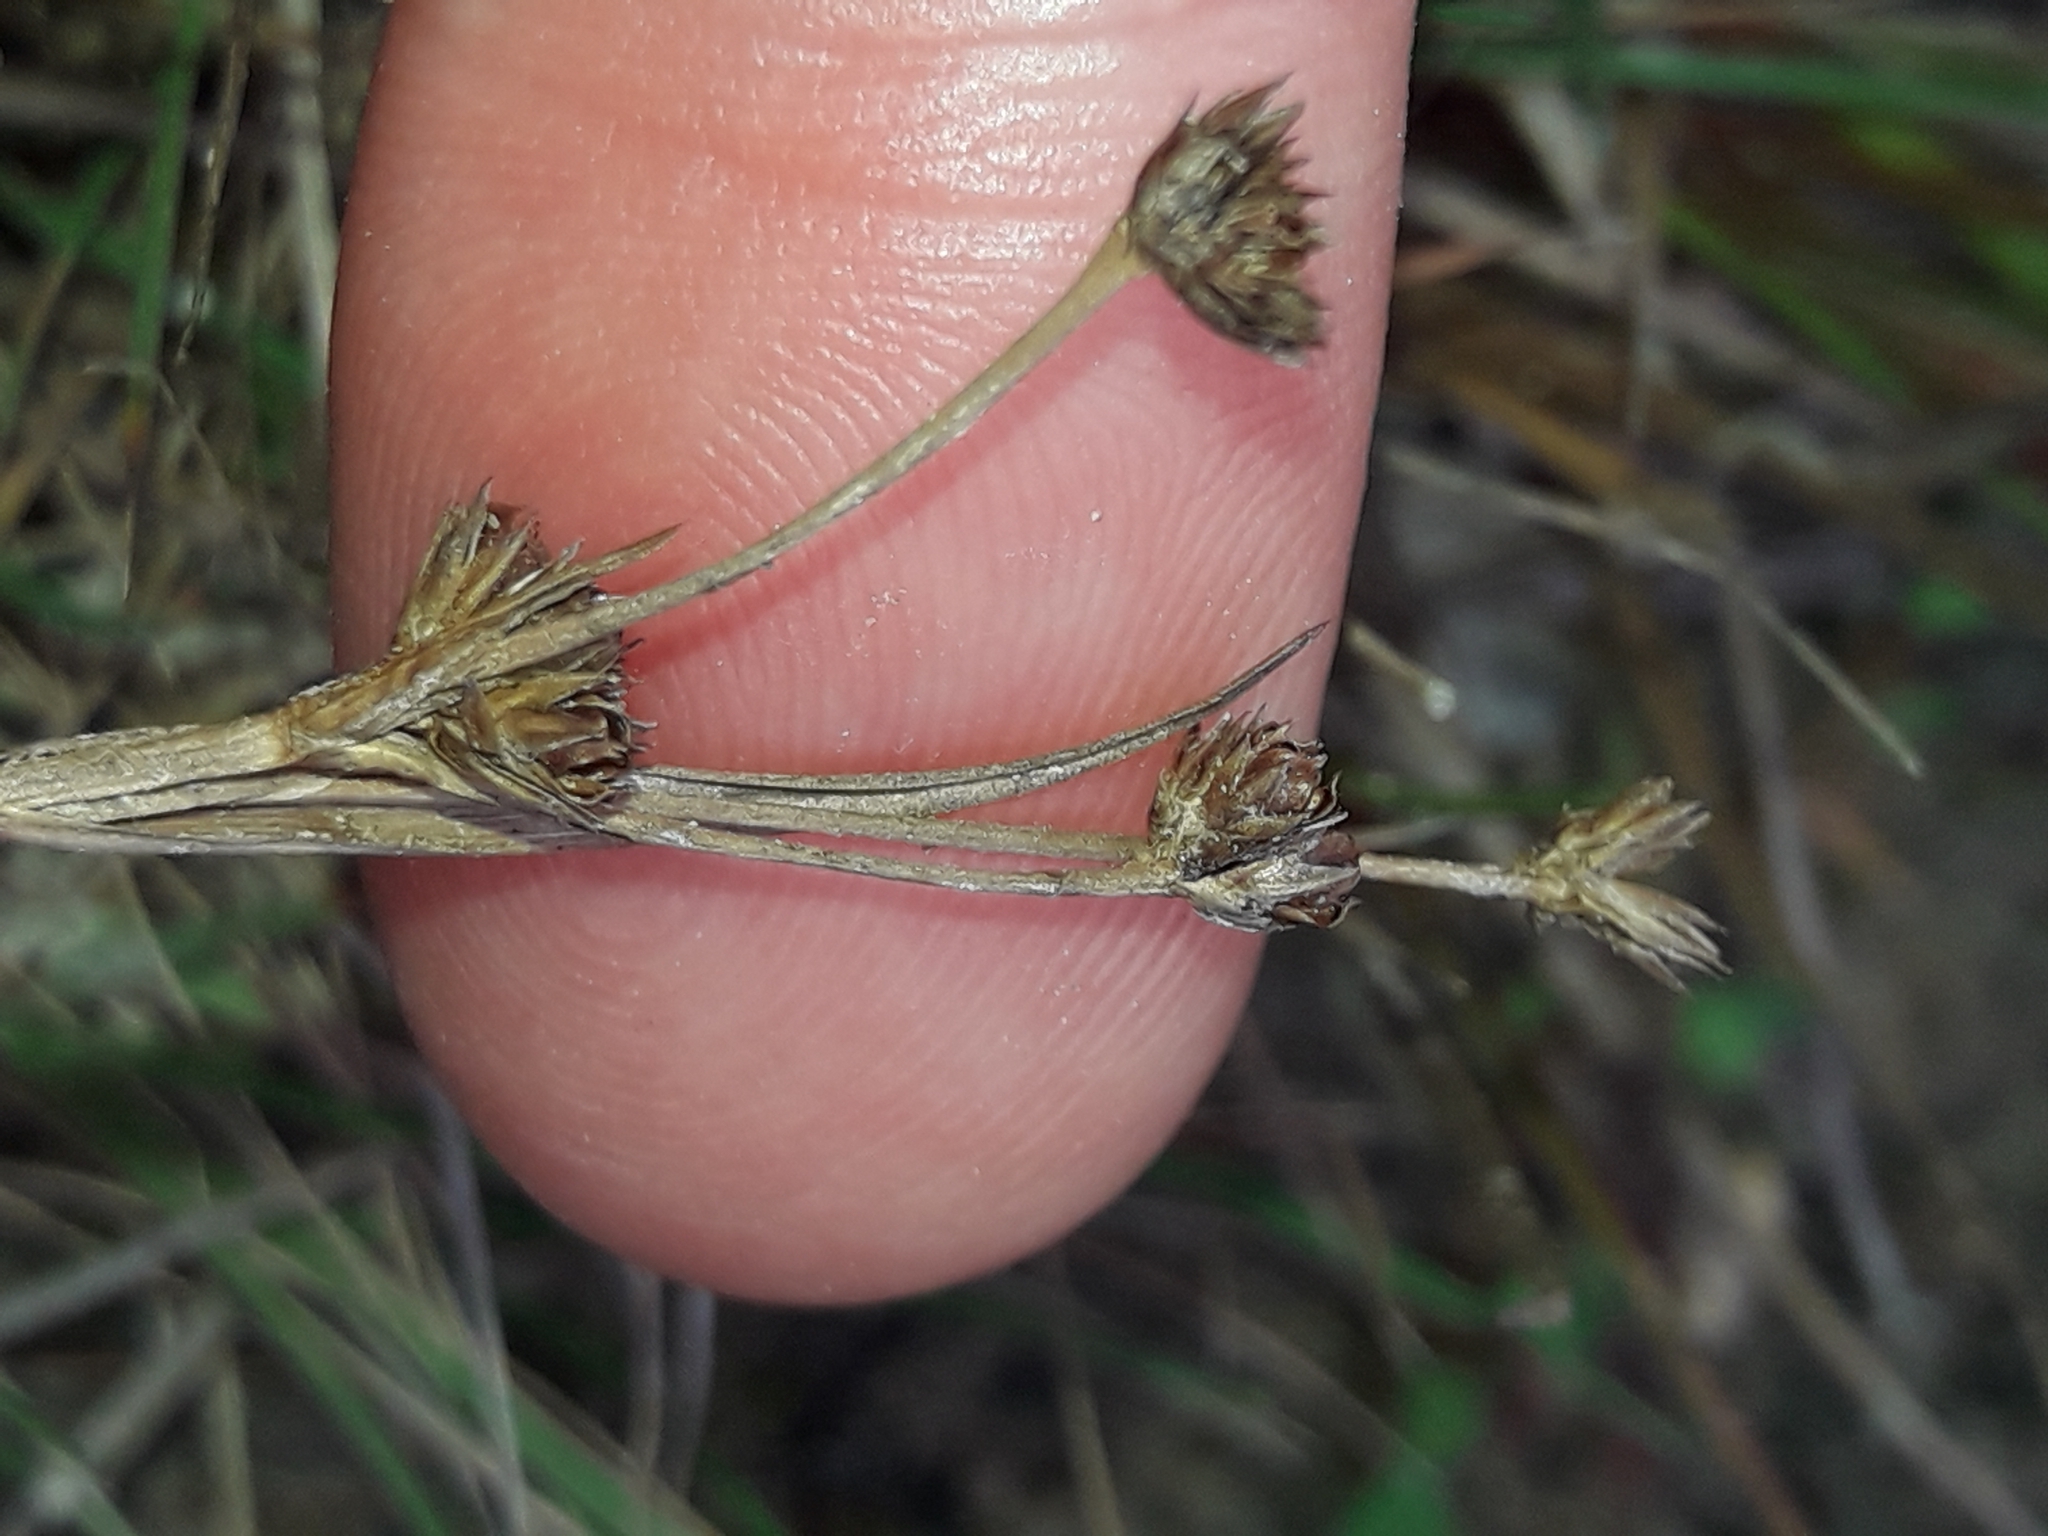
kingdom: Plantae
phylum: Tracheophyta
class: Liliopsida
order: Poales
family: Juncaceae
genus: Juncus
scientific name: Juncus planifolius
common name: Broadleaf rush
